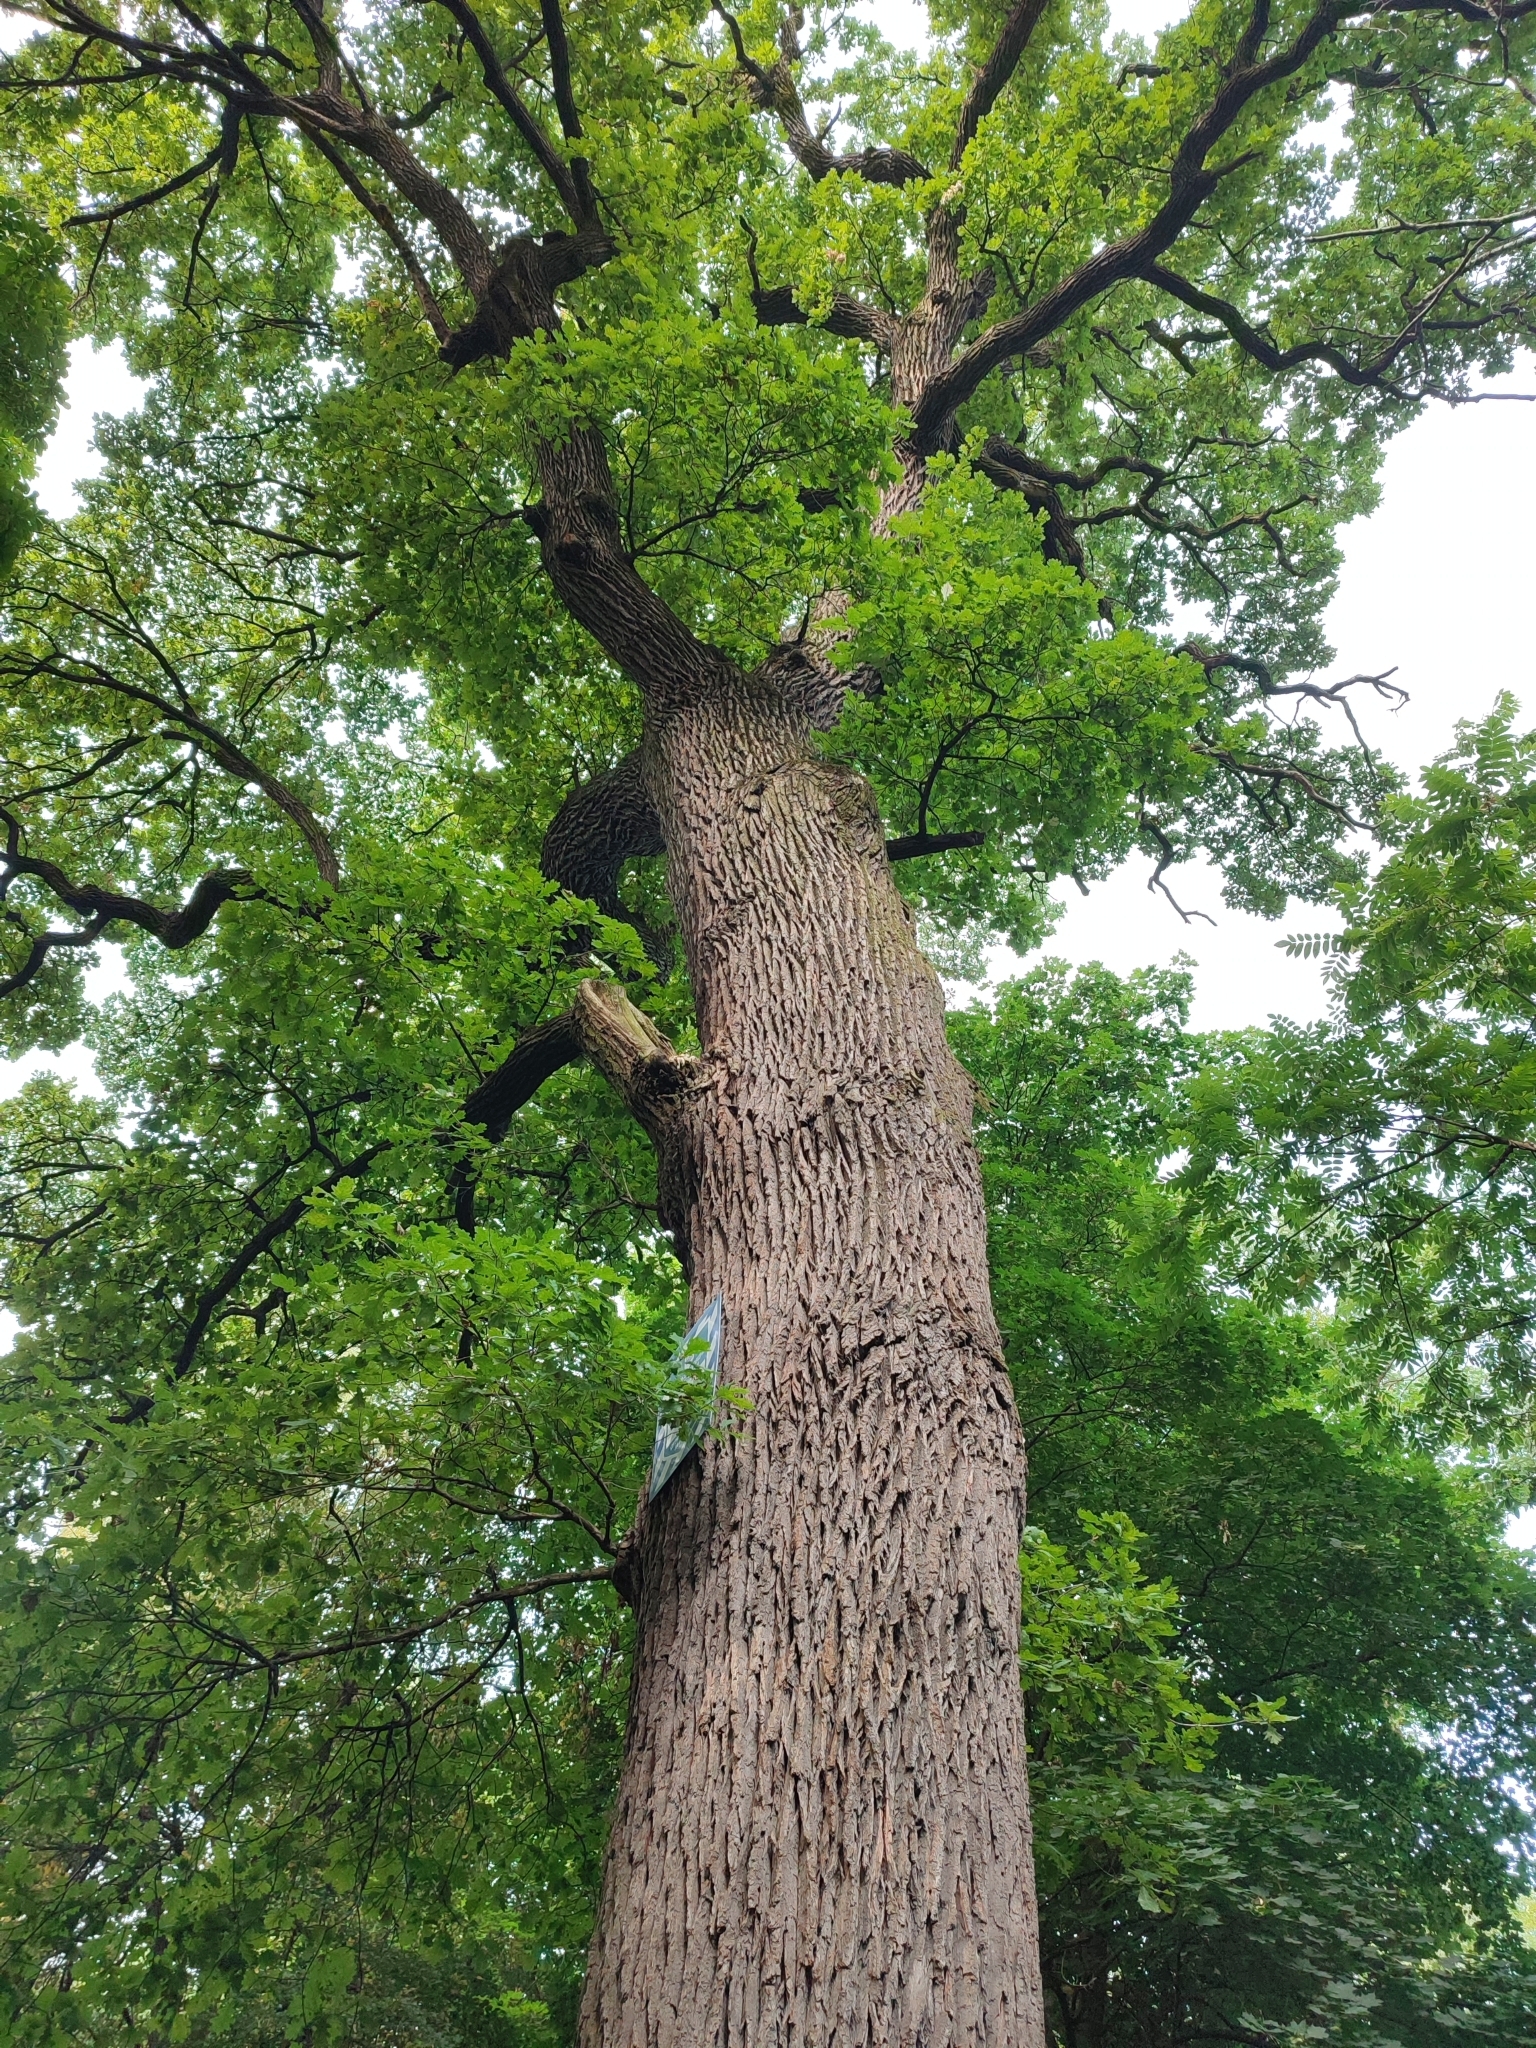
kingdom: Plantae
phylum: Tracheophyta
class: Magnoliopsida
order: Fagales
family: Fagaceae
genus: Quercus
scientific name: Quercus robur
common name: Pedunculate oak
